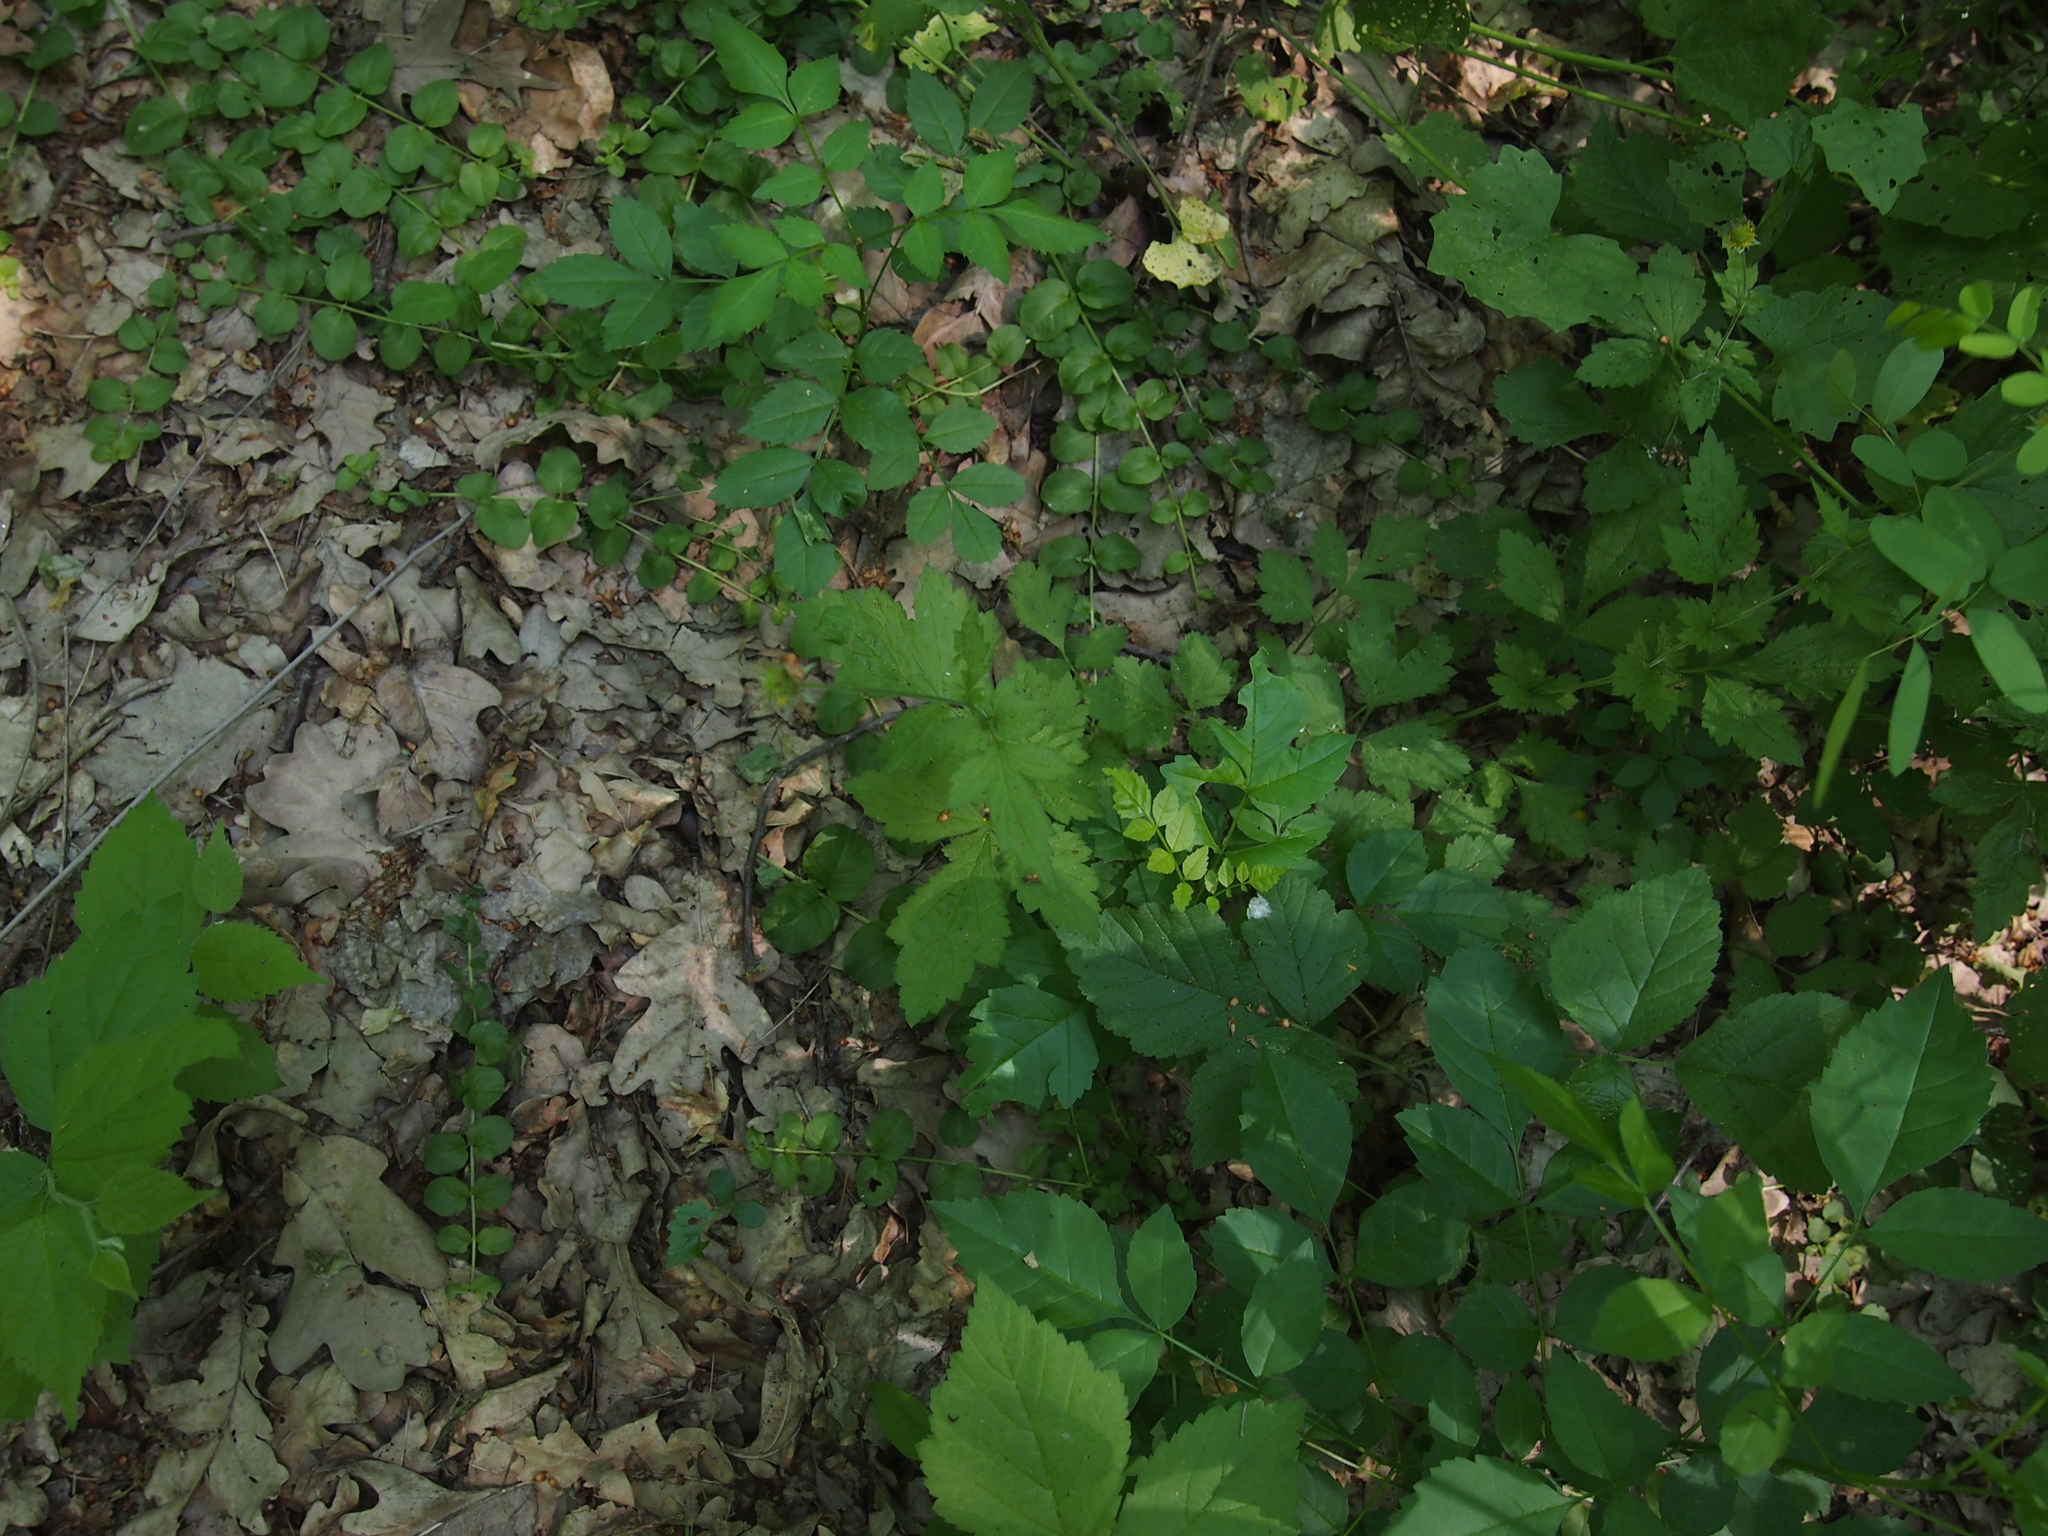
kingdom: Plantae
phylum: Tracheophyta
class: Magnoliopsida
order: Rosales
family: Rosaceae
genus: Geum
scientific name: Geum urbanum
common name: Wood avens
